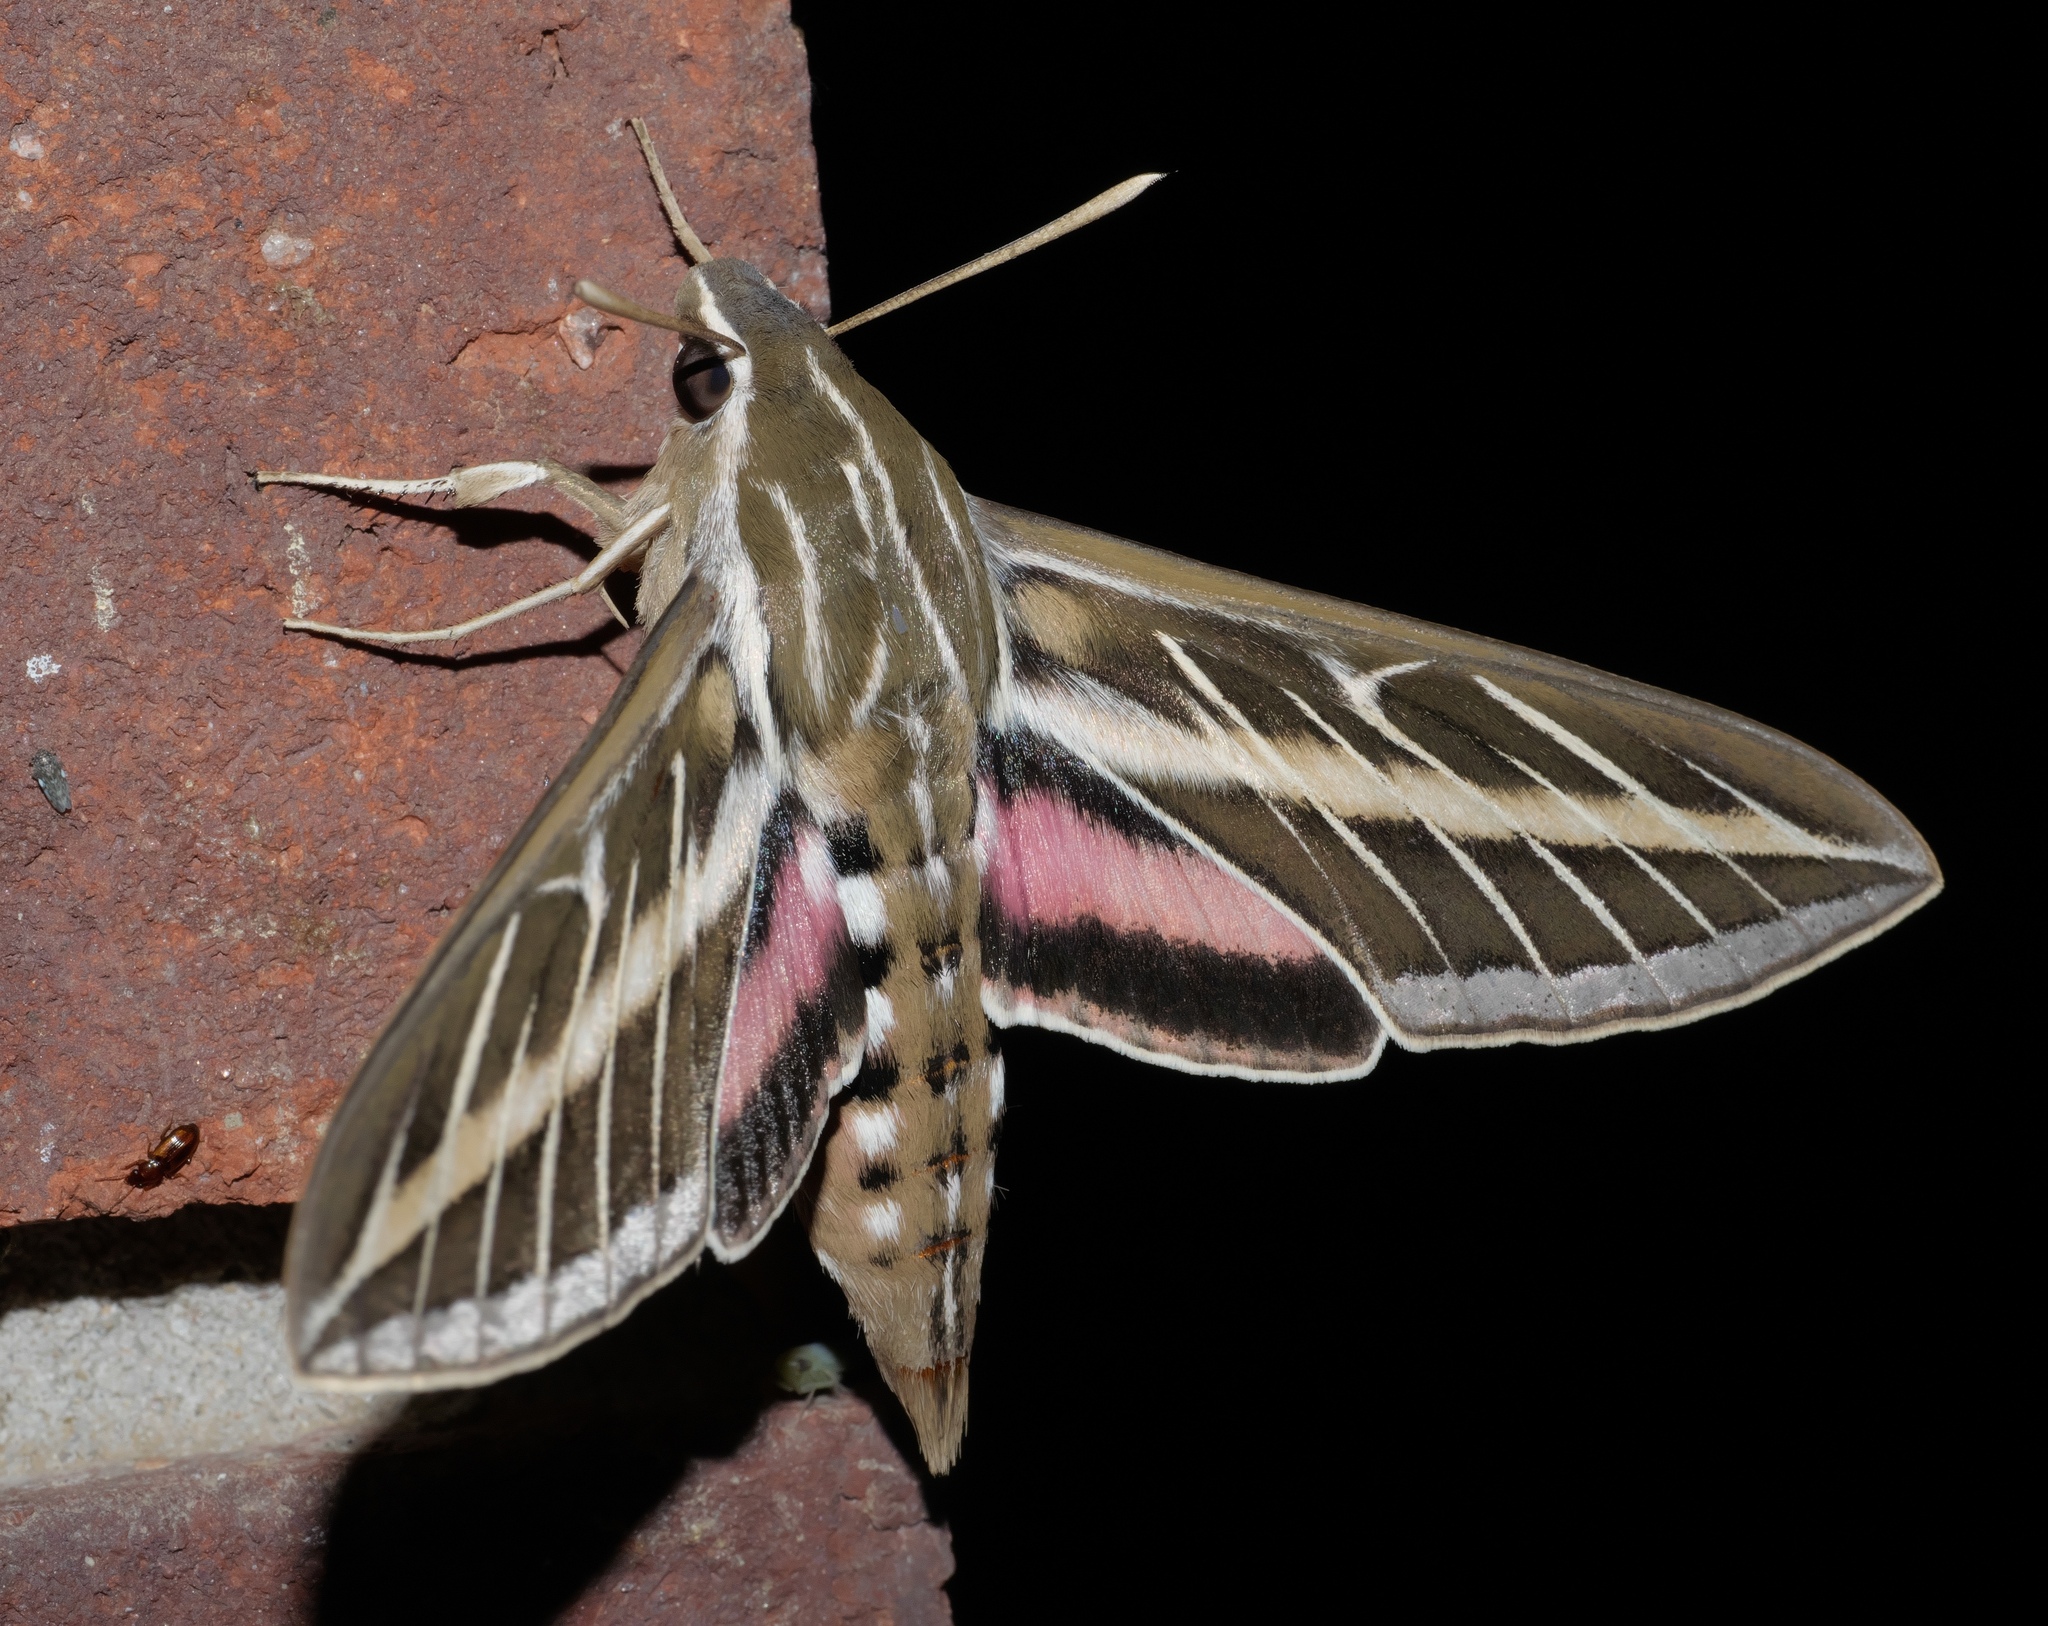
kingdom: Animalia
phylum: Arthropoda
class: Insecta
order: Lepidoptera
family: Sphingidae
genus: Hyles
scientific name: Hyles lineata
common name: White-lined sphinx
